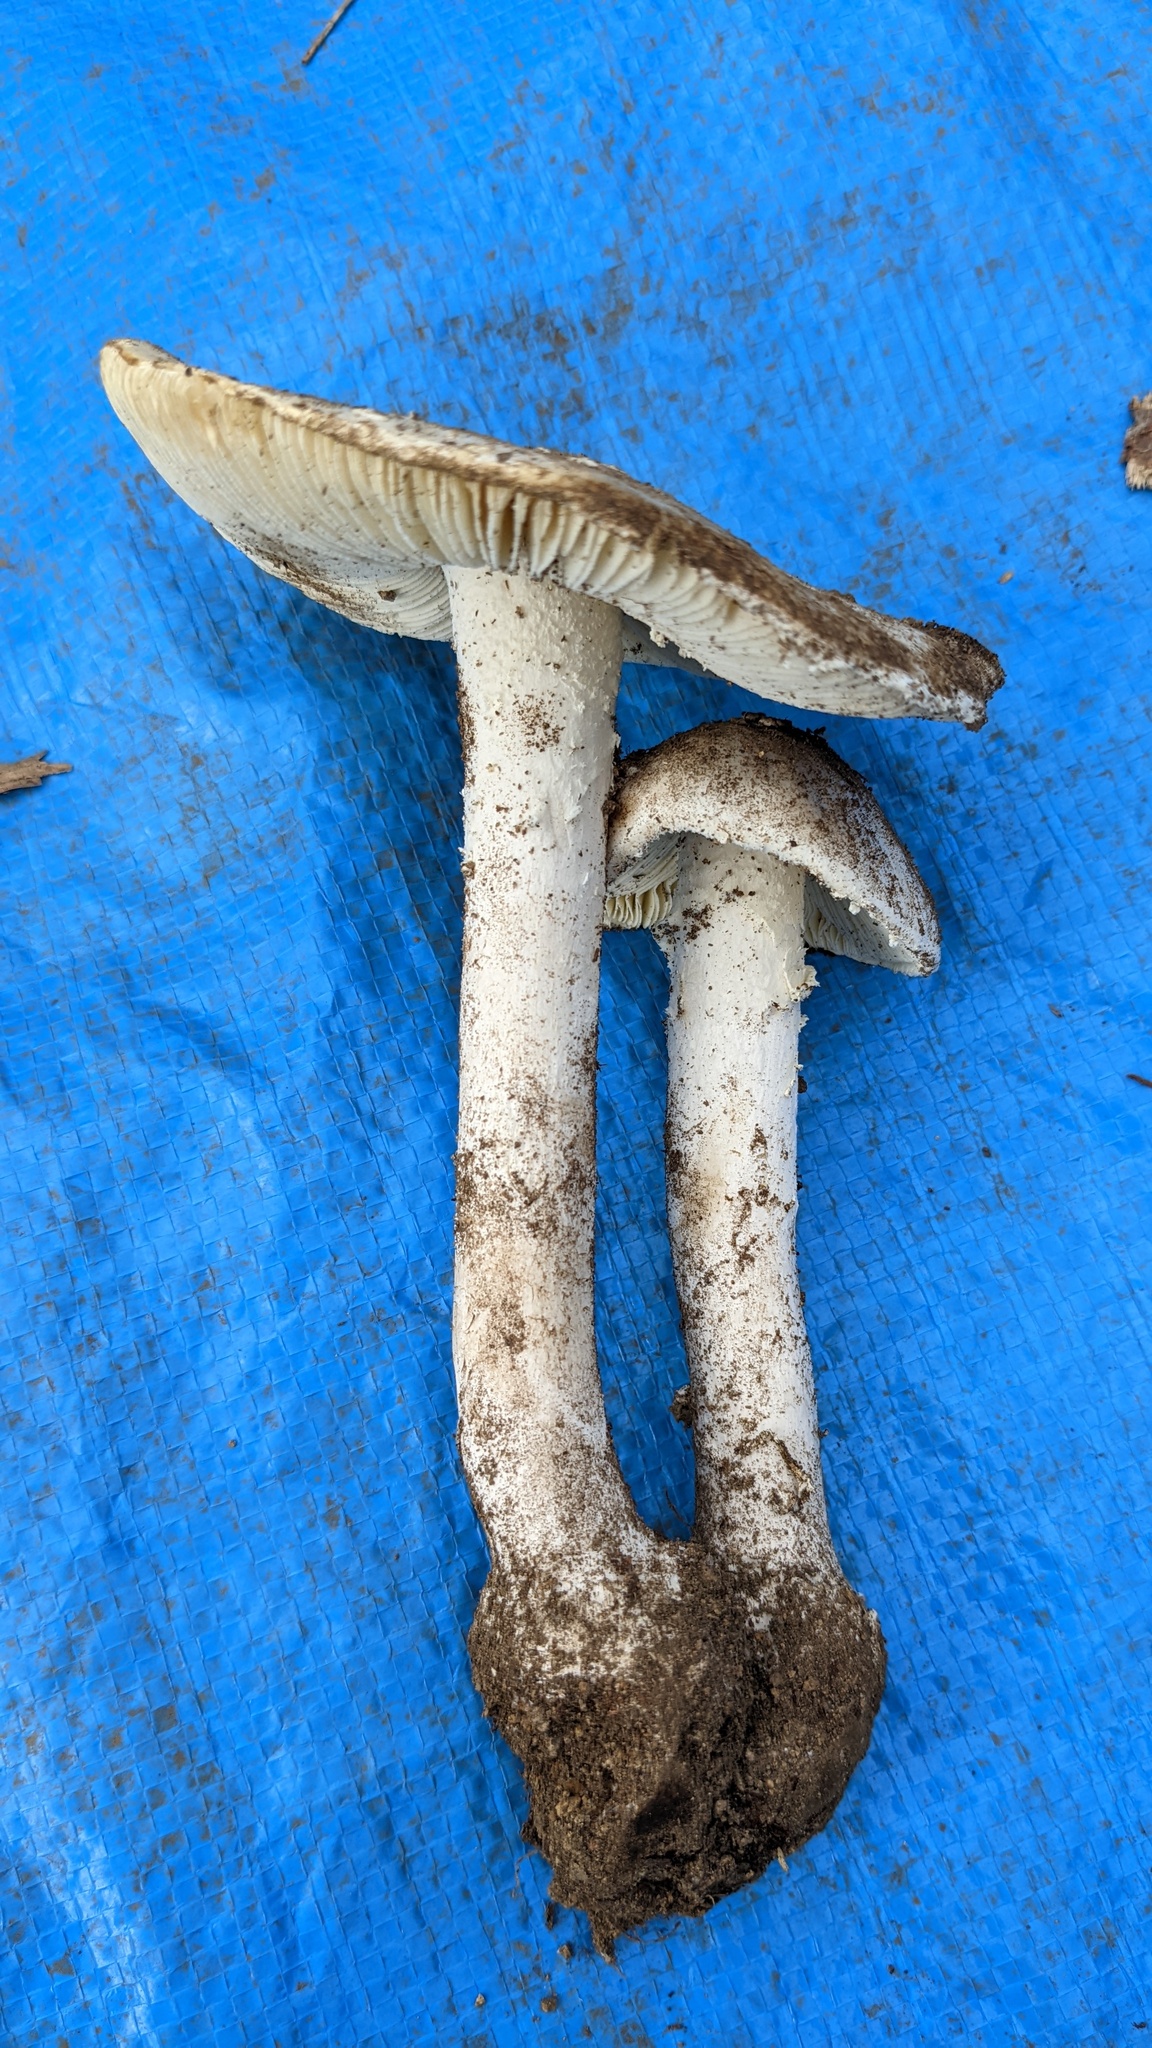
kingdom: Fungi
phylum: Basidiomycota
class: Agaricomycetes
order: Agaricales
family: Amanitaceae
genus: Amanita
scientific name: Amanita kotohiraensis
